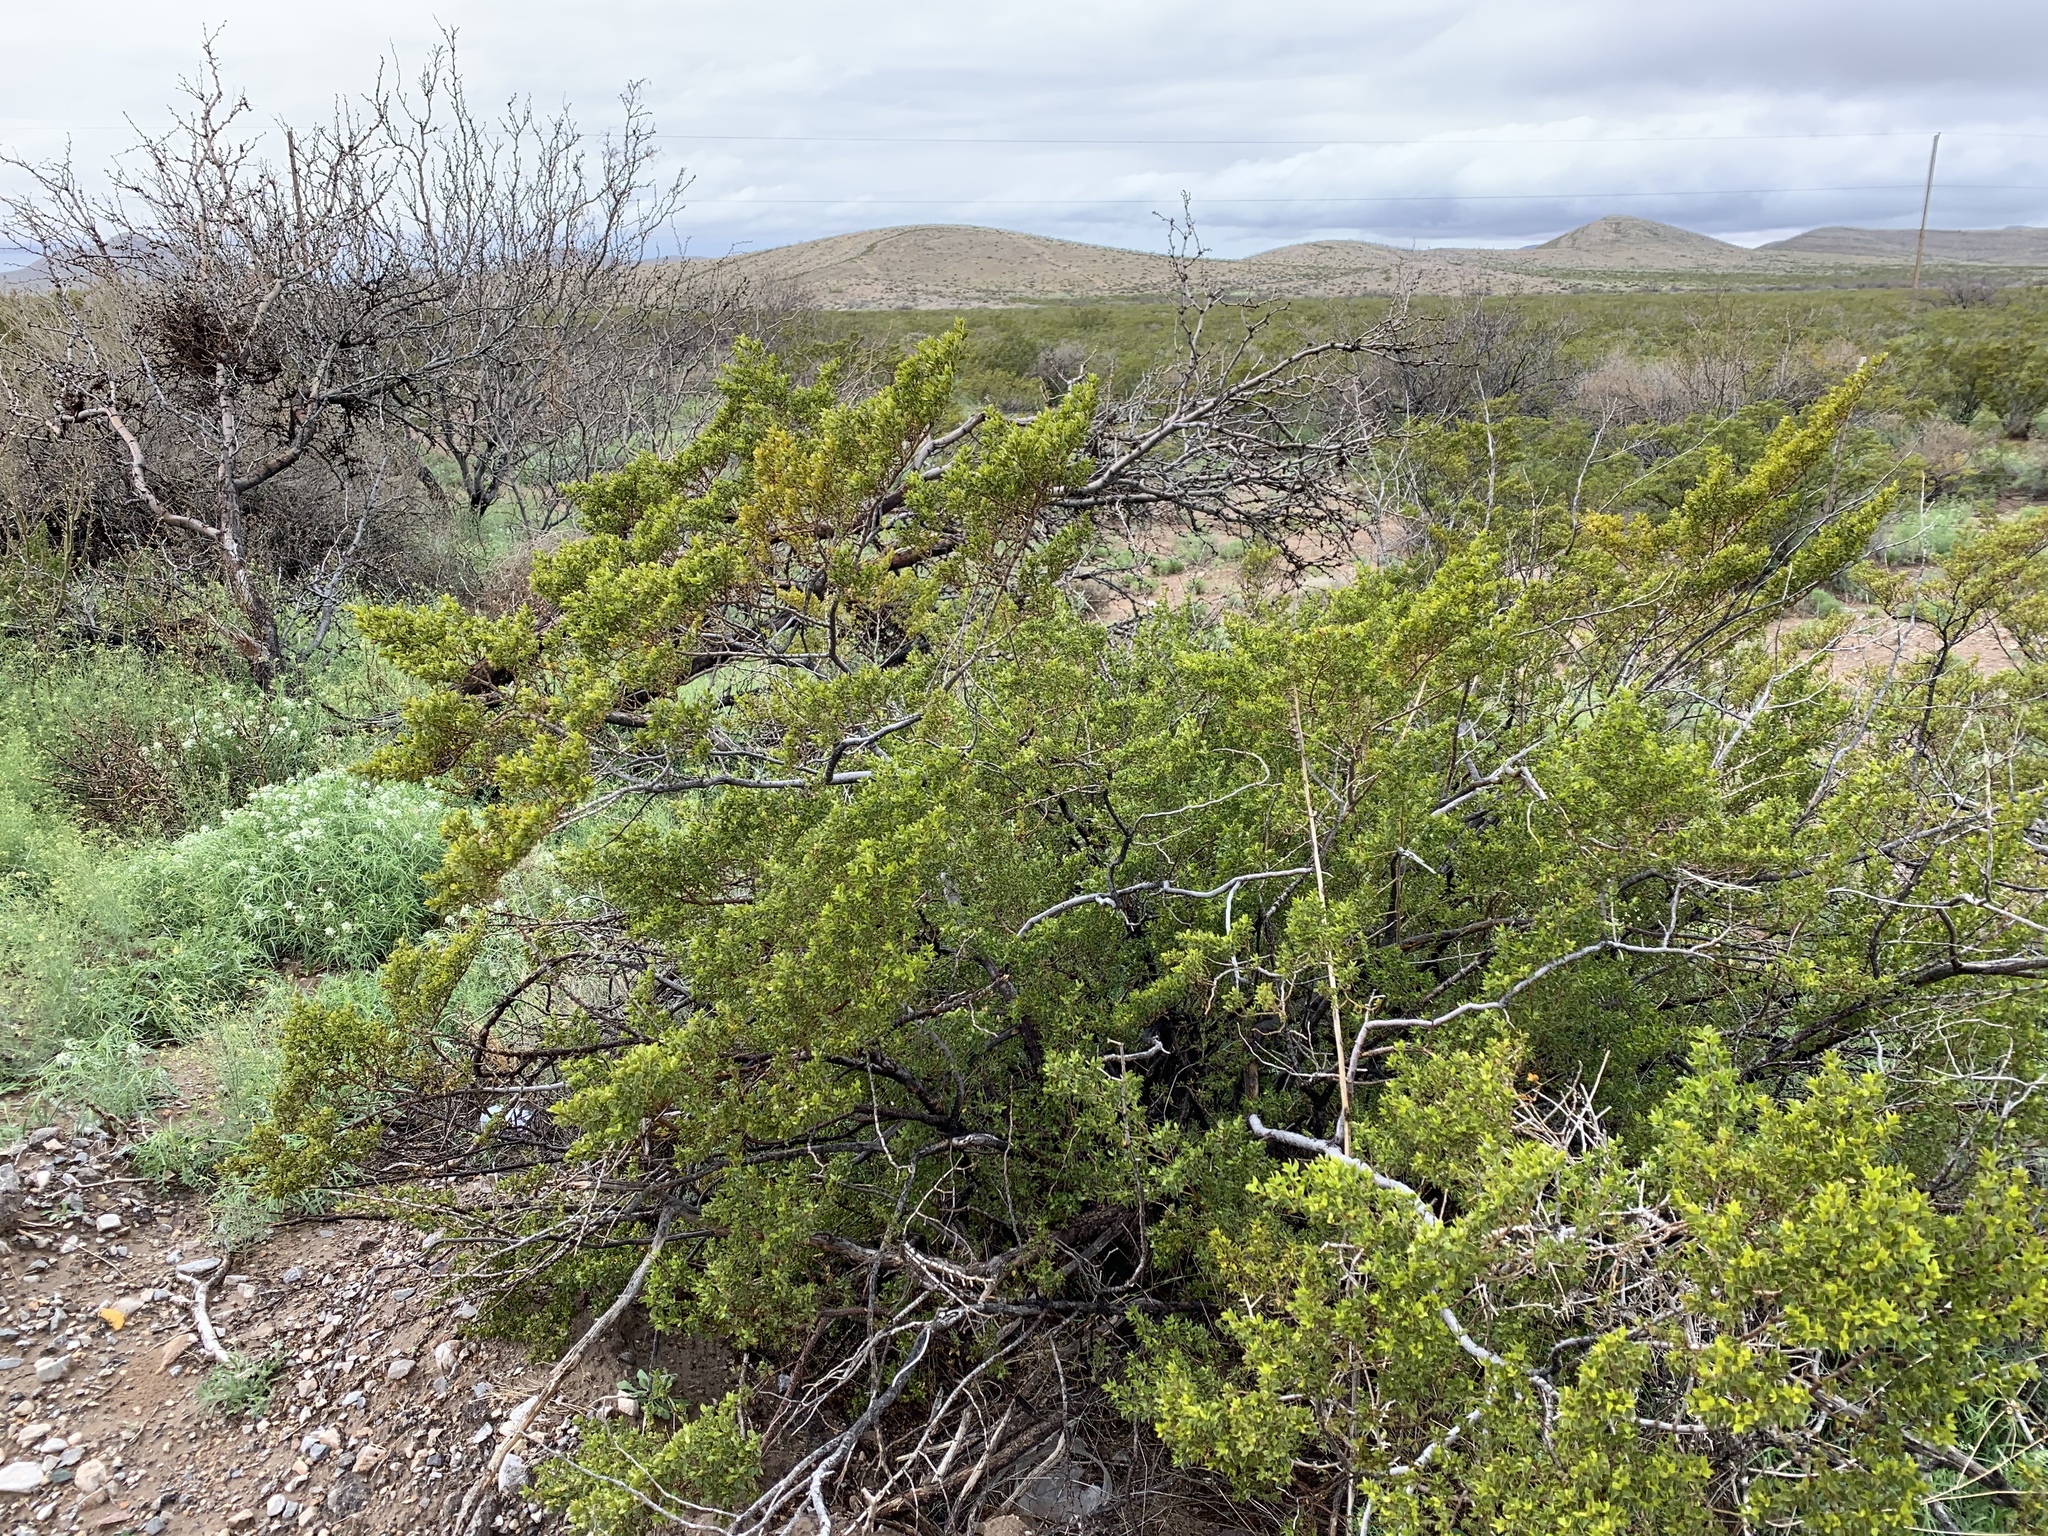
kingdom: Plantae
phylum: Tracheophyta
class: Magnoliopsida
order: Zygophyllales
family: Zygophyllaceae
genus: Larrea
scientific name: Larrea tridentata
